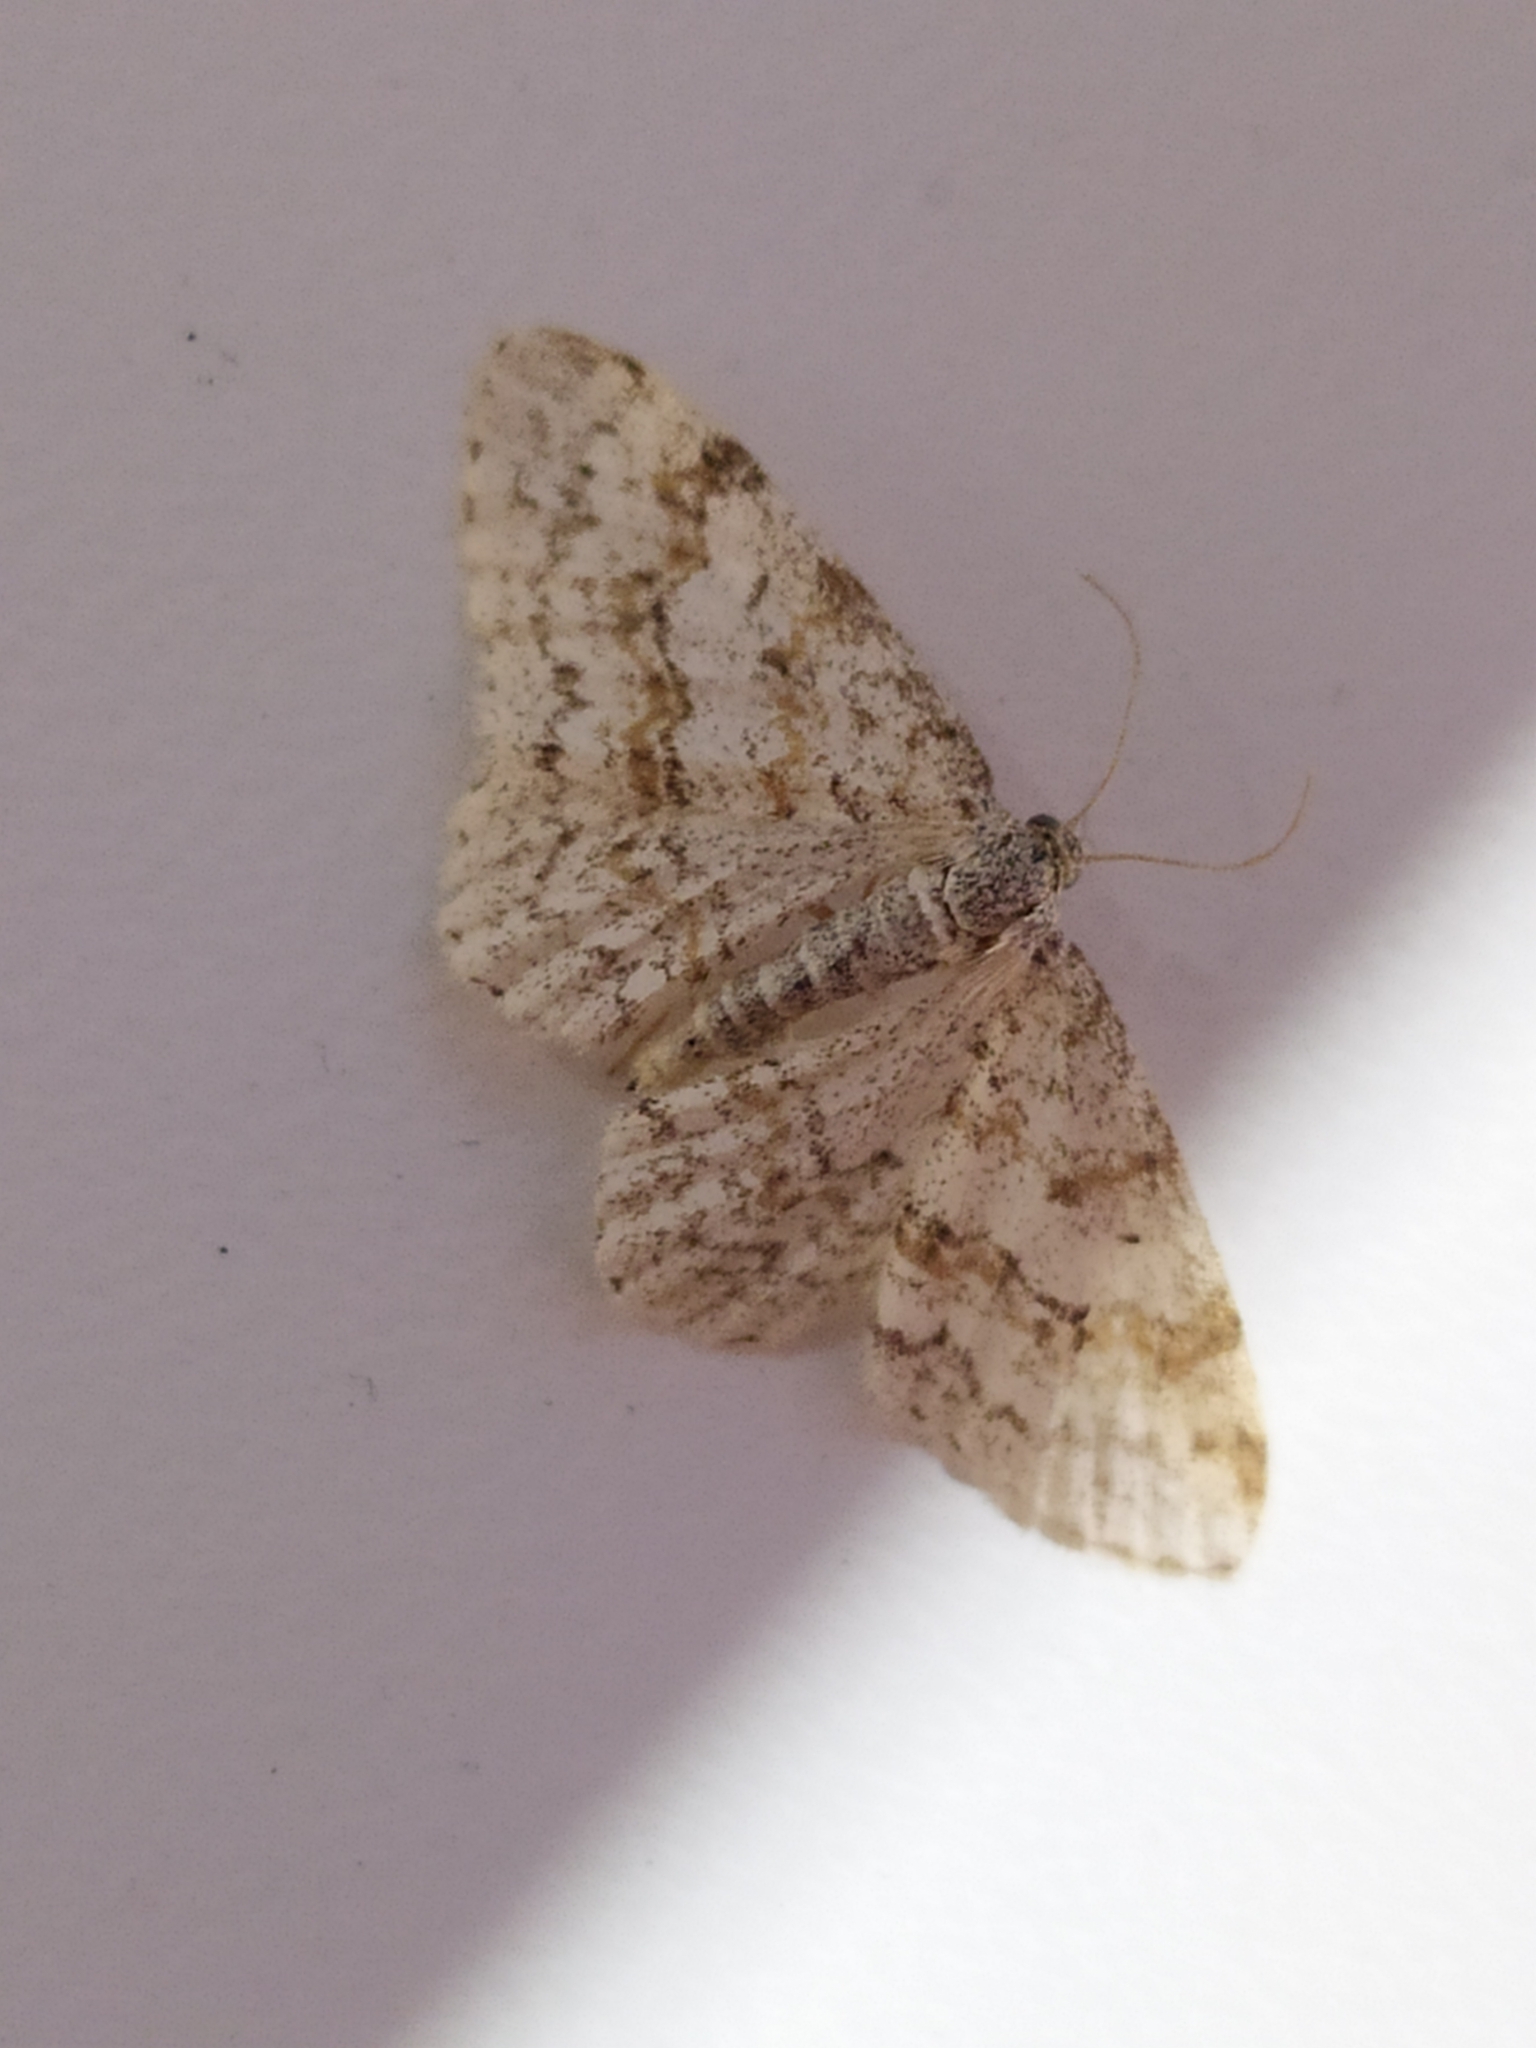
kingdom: Animalia
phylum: Arthropoda
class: Insecta
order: Lepidoptera
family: Geometridae
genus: Hydrelia
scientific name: Hydrelia sylvata
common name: Waved carpet
